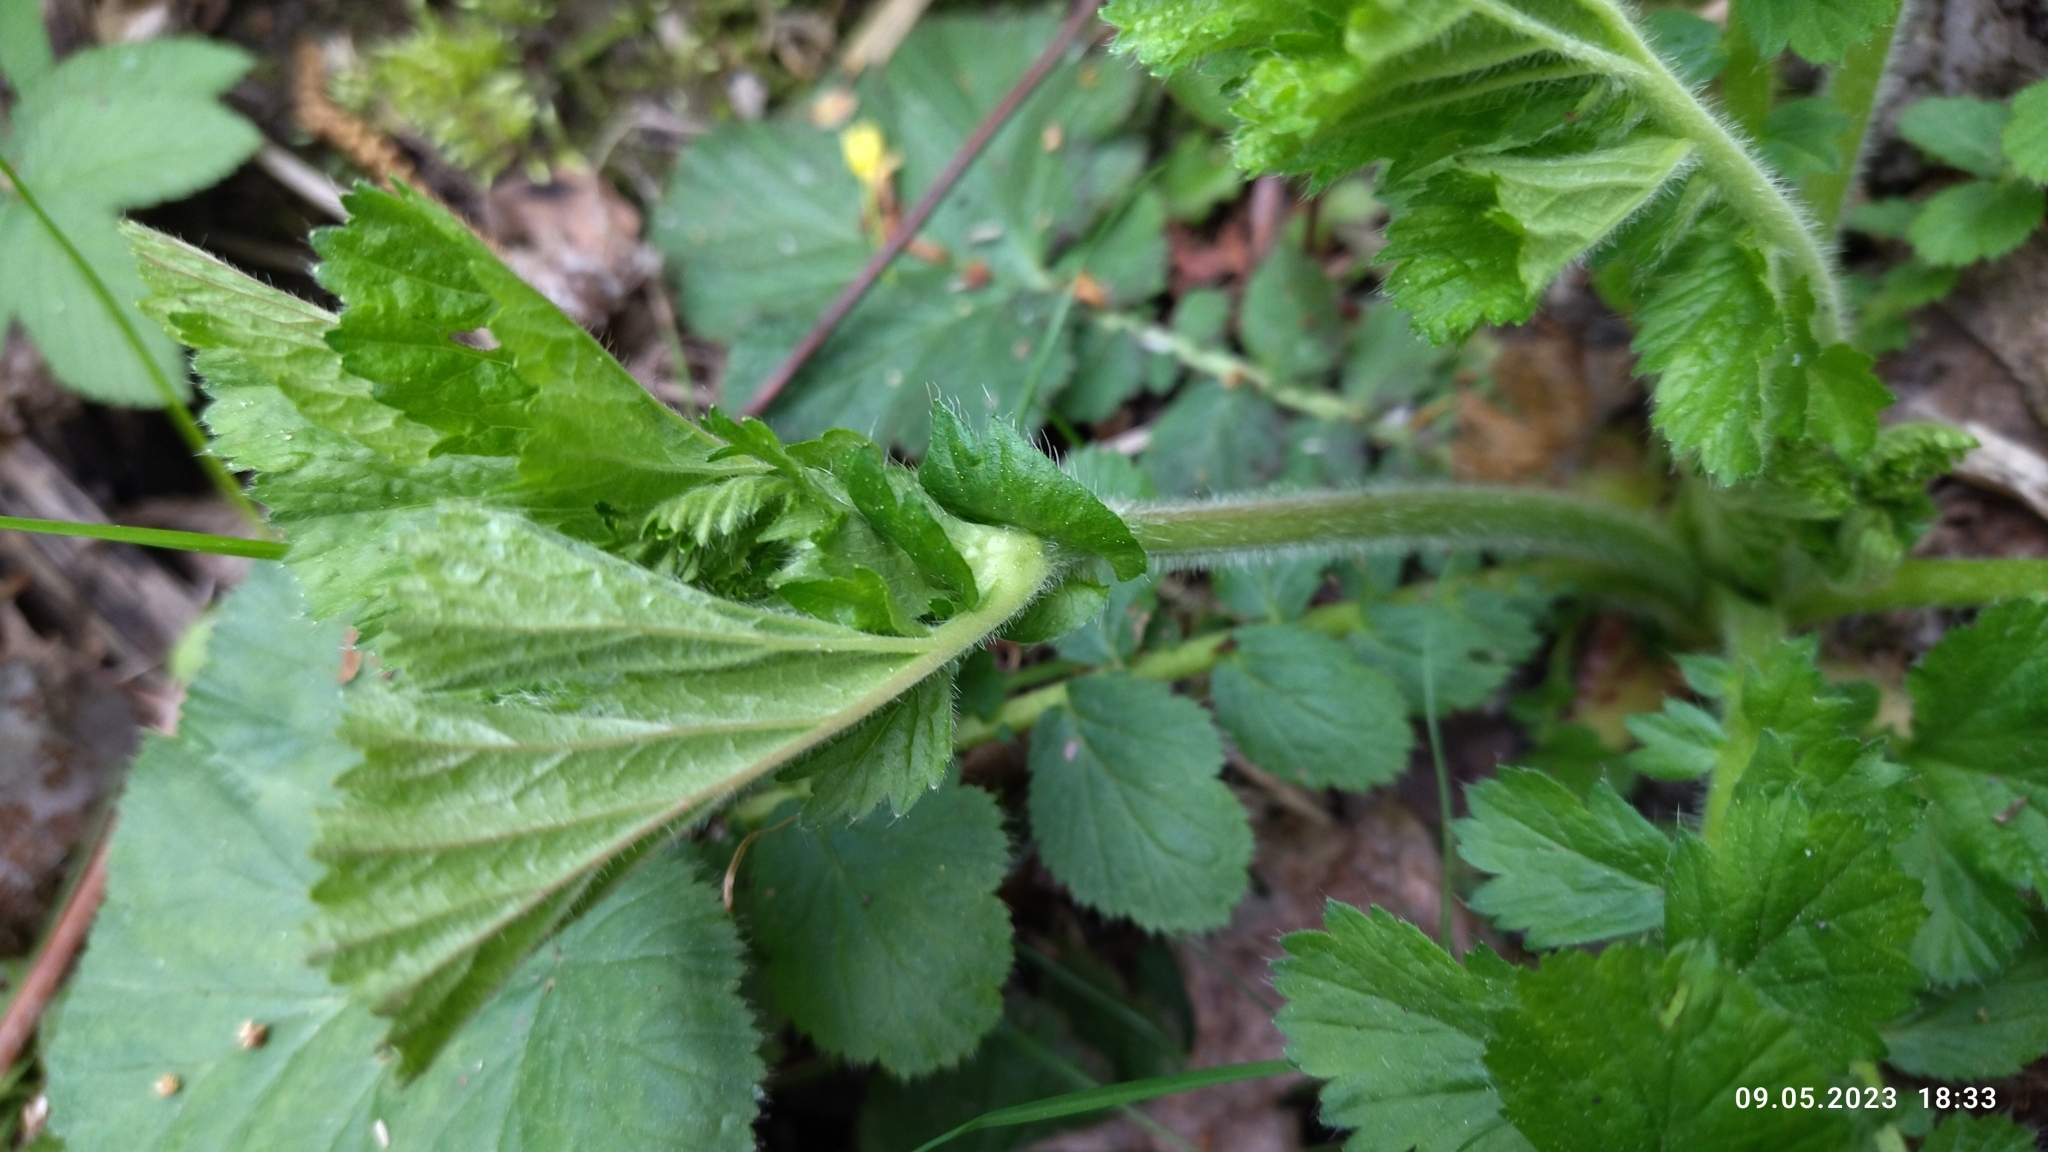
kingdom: Plantae
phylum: Tracheophyta
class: Magnoliopsida
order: Rosales
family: Rosaceae
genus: Geum
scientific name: Geum macrophyllum
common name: Large-leaved avens
